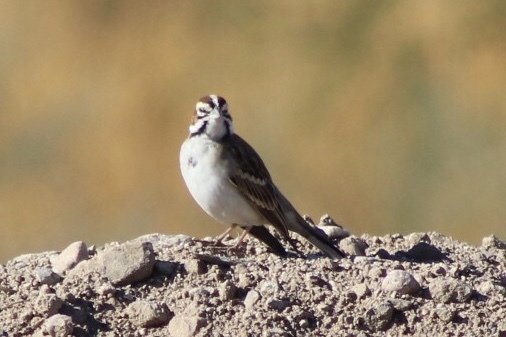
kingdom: Animalia
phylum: Chordata
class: Aves
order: Passeriformes
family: Passerellidae
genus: Chondestes
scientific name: Chondestes grammacus
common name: Lark sparrow
